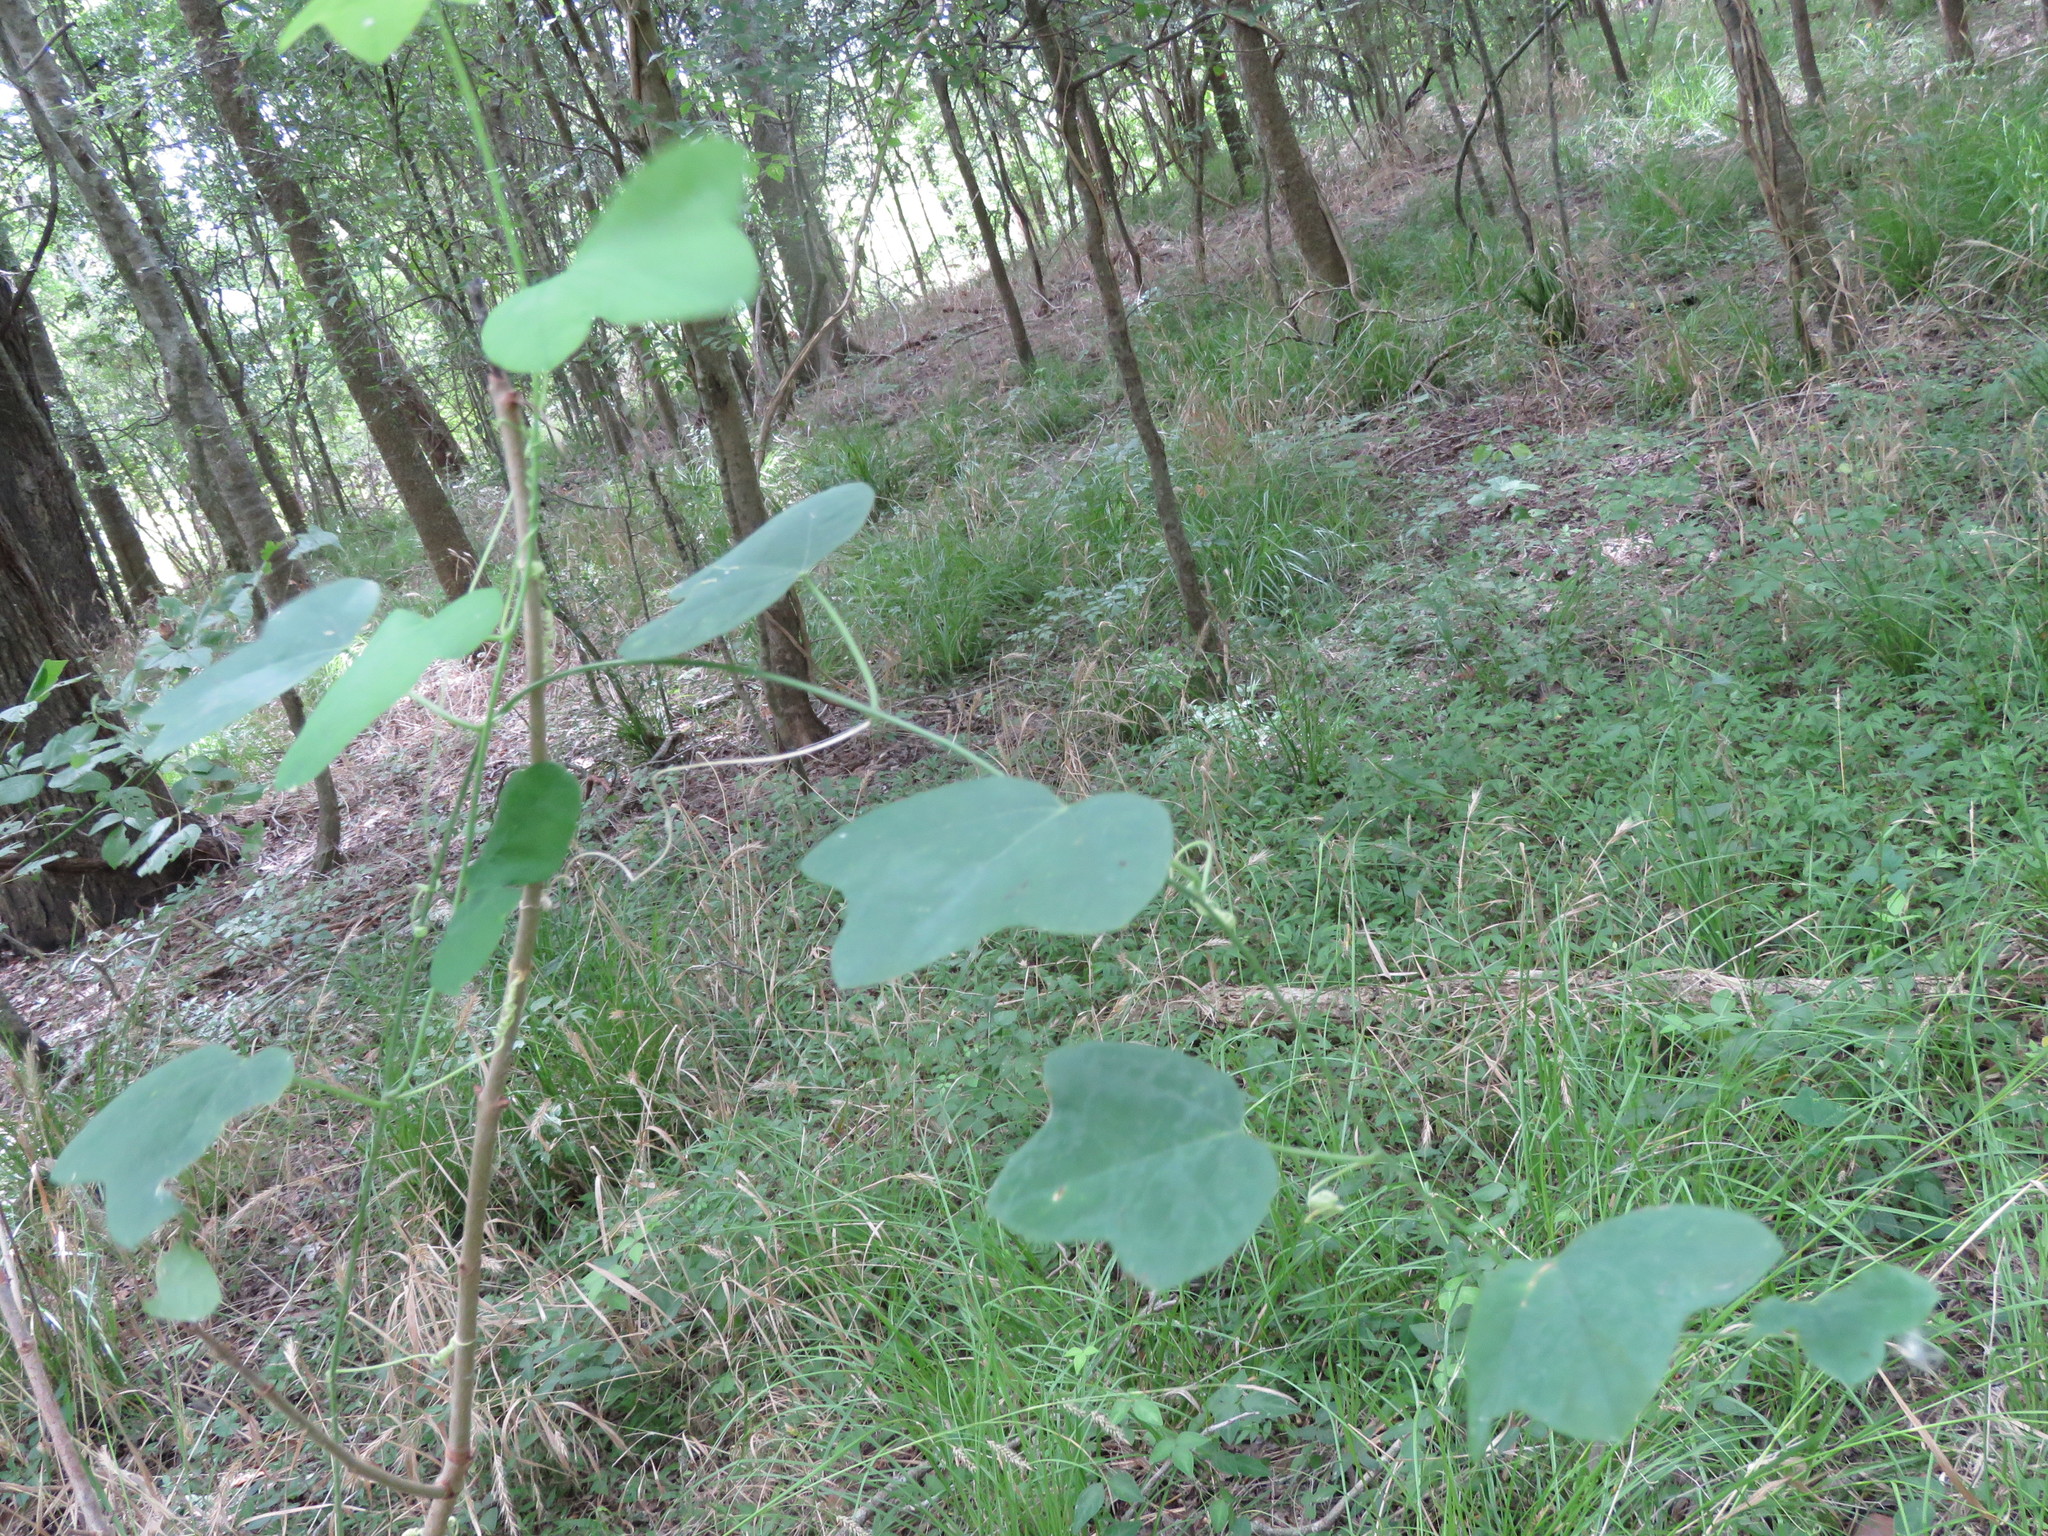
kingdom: Plantae
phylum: Tracheophyta
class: Magnoliopsida
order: Malpighiales
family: Passifloraceae
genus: Passiflora
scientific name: Passiflora lutea
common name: Yellow passionflower
